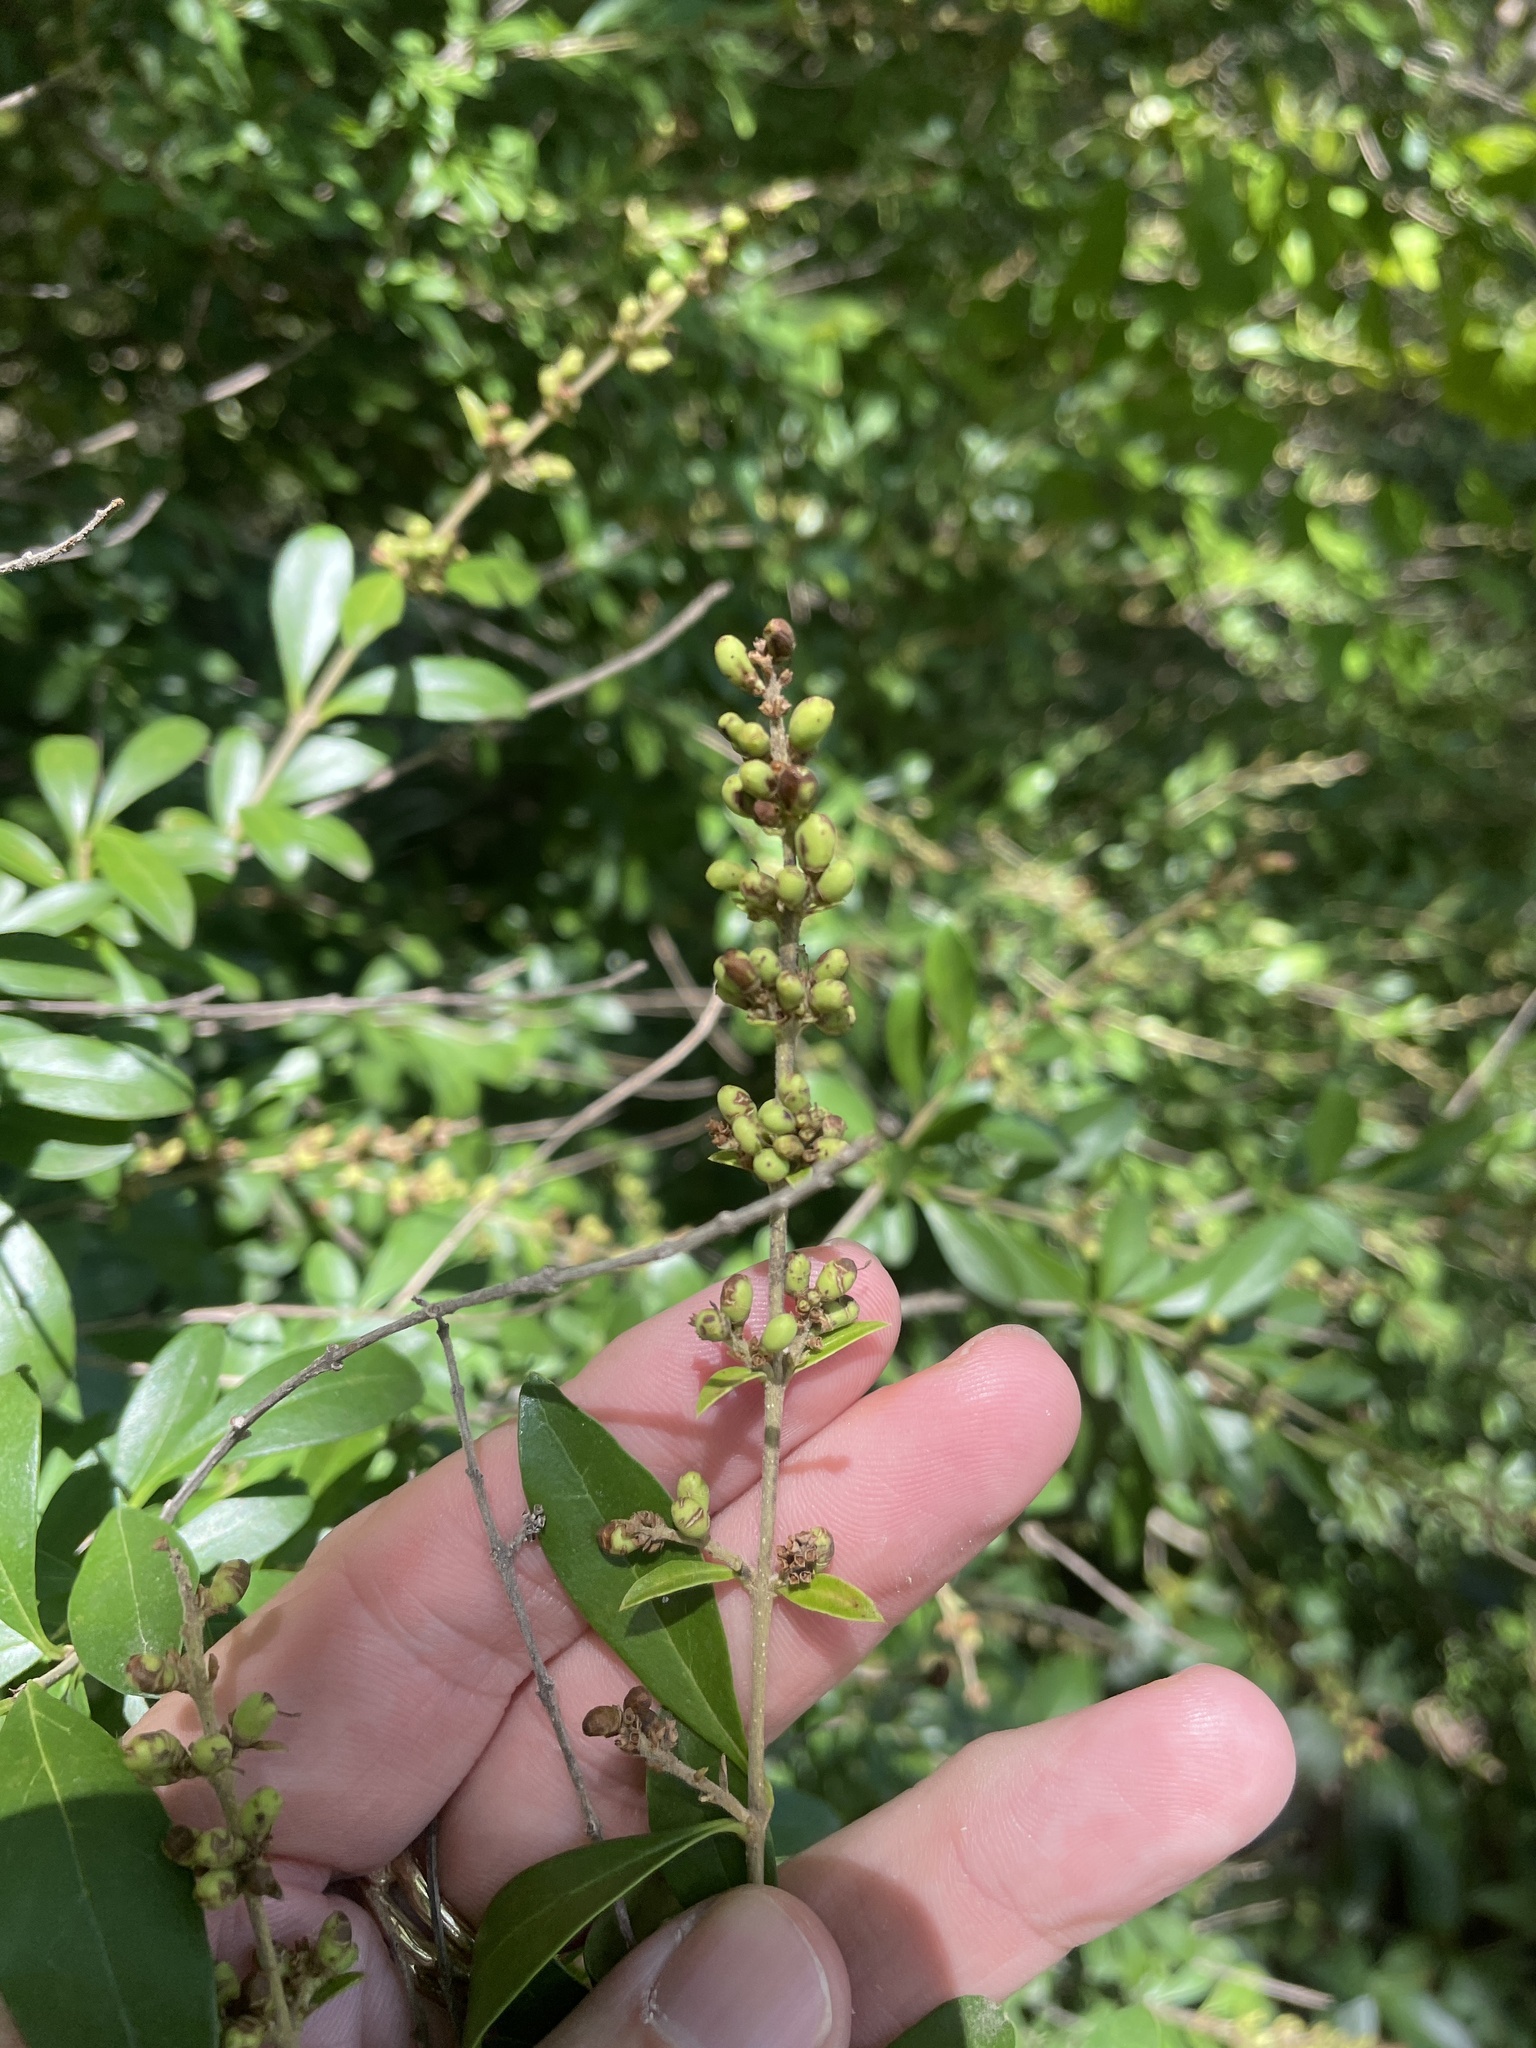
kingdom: Plantae
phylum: Tracheophyta
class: Magnoliopsida
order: Lamiales
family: Oleaceae
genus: Ligustrum
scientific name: Ligustrum quihoui
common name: Waxyleaf privet
